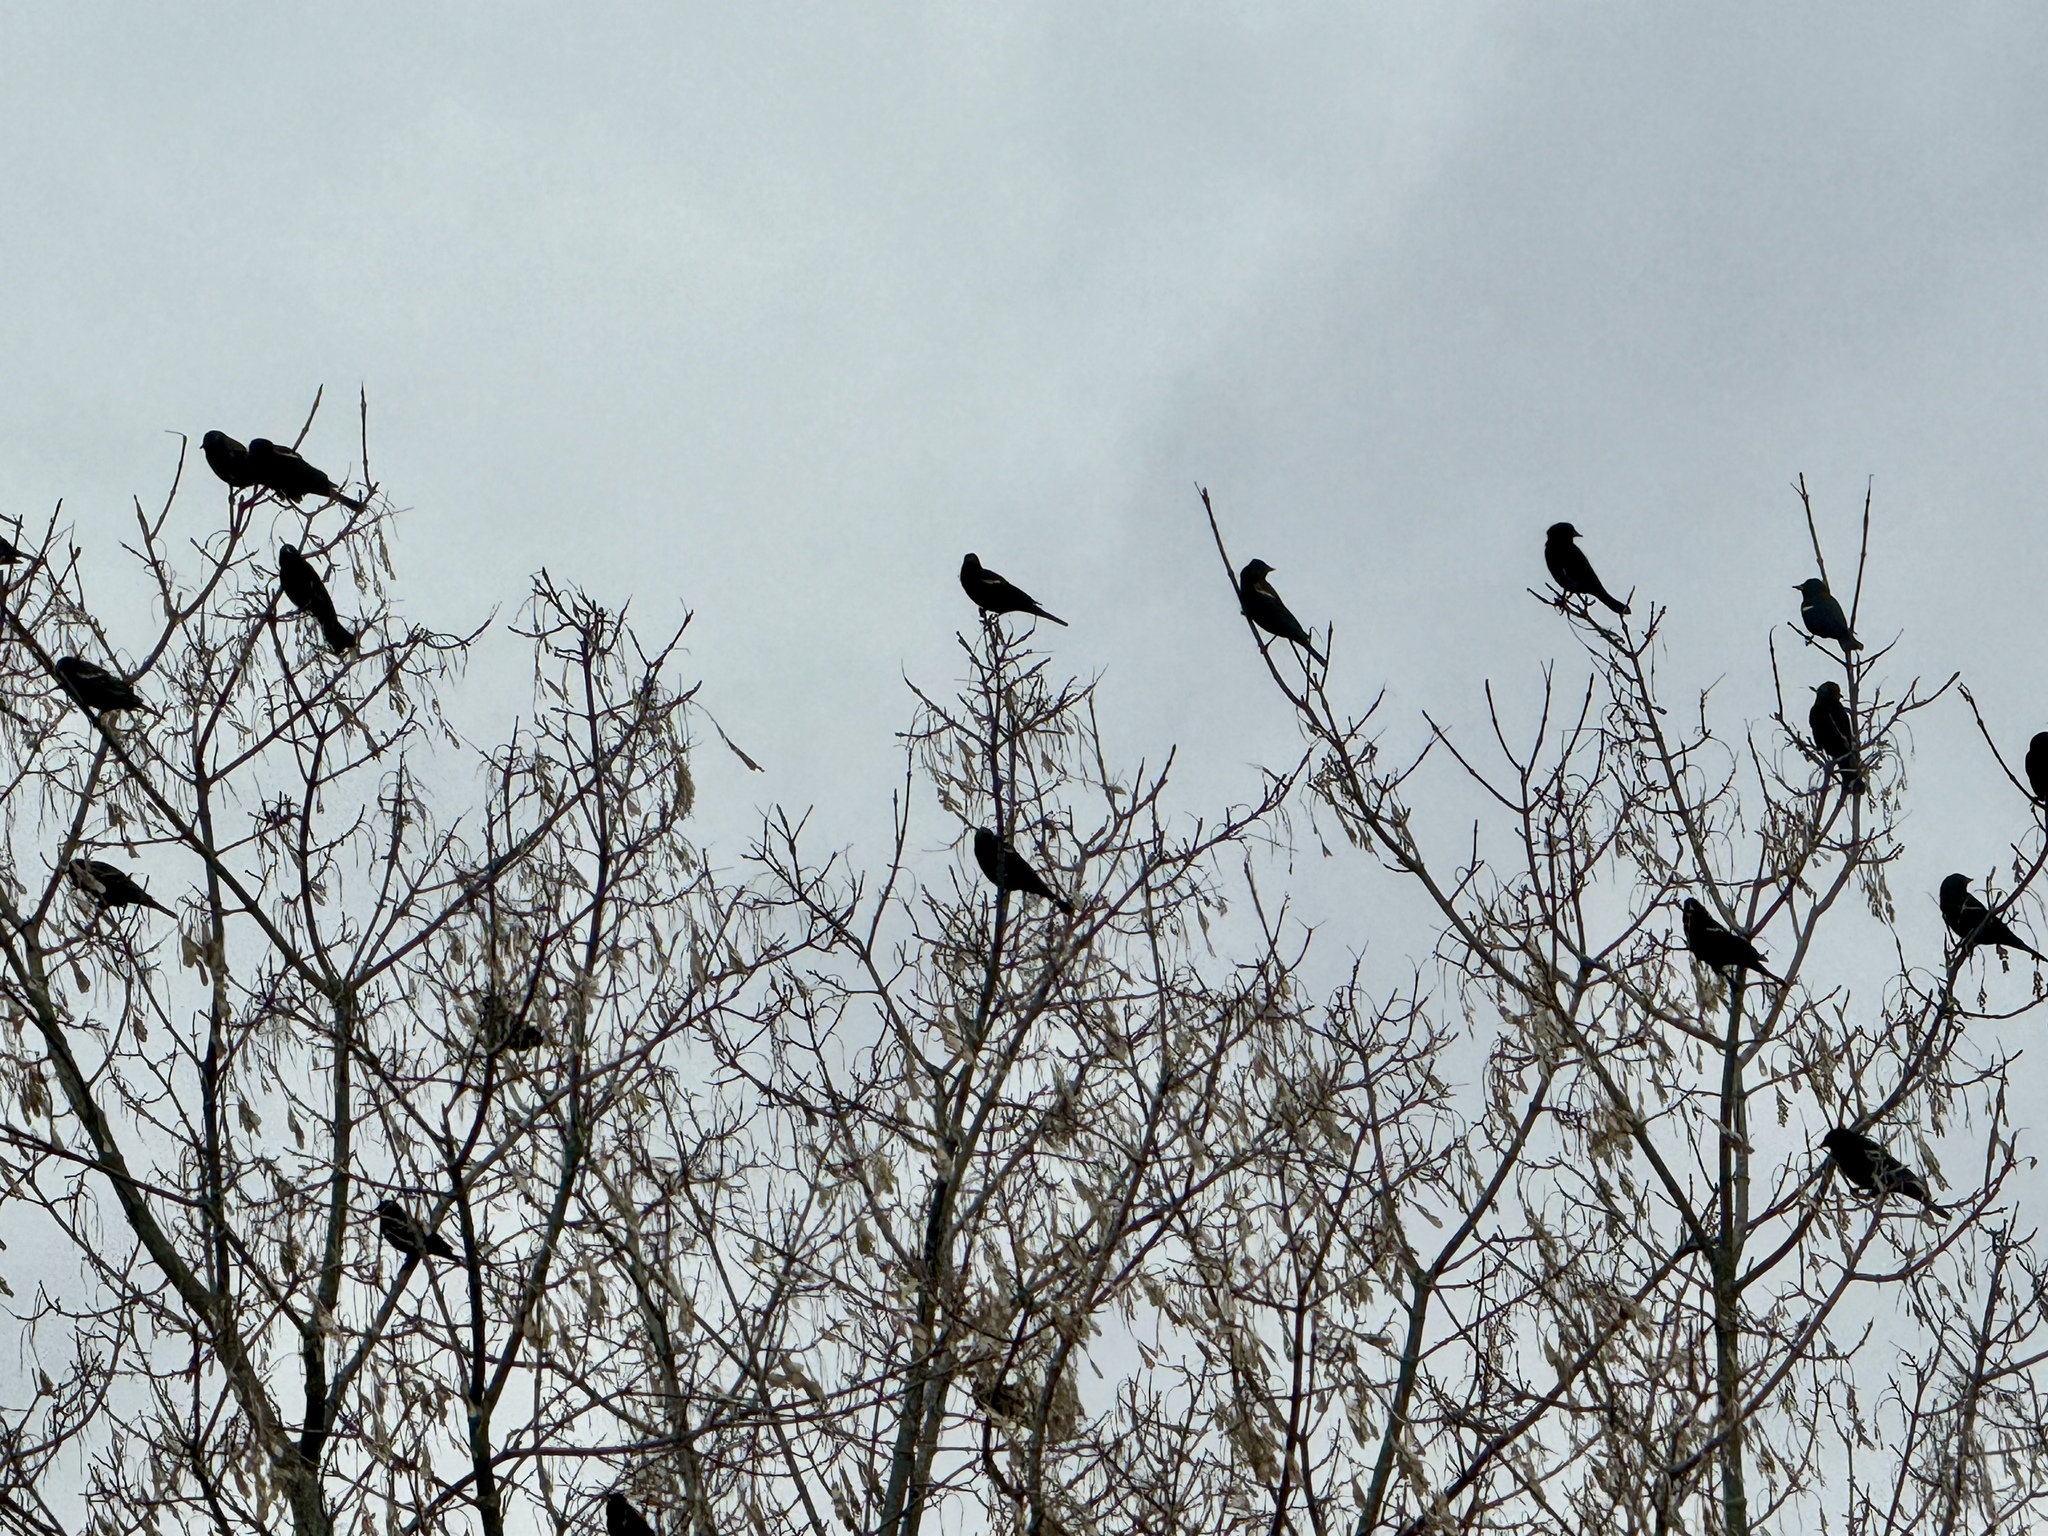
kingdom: Animalia
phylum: Chordata
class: Aves
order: Passeriformes
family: Icteridae
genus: Agelaius
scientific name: Agelaius phoeniceus
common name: Red-winged blackbird
